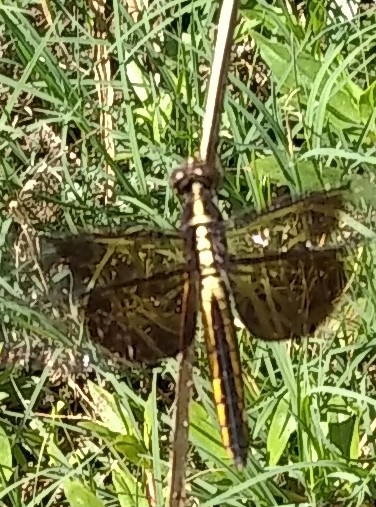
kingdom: Animalia
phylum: Arthropoda
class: Insecta
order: Odonata
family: Libellulidae
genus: Libellula
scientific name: Libellula luctuosa
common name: Widow skimmer
